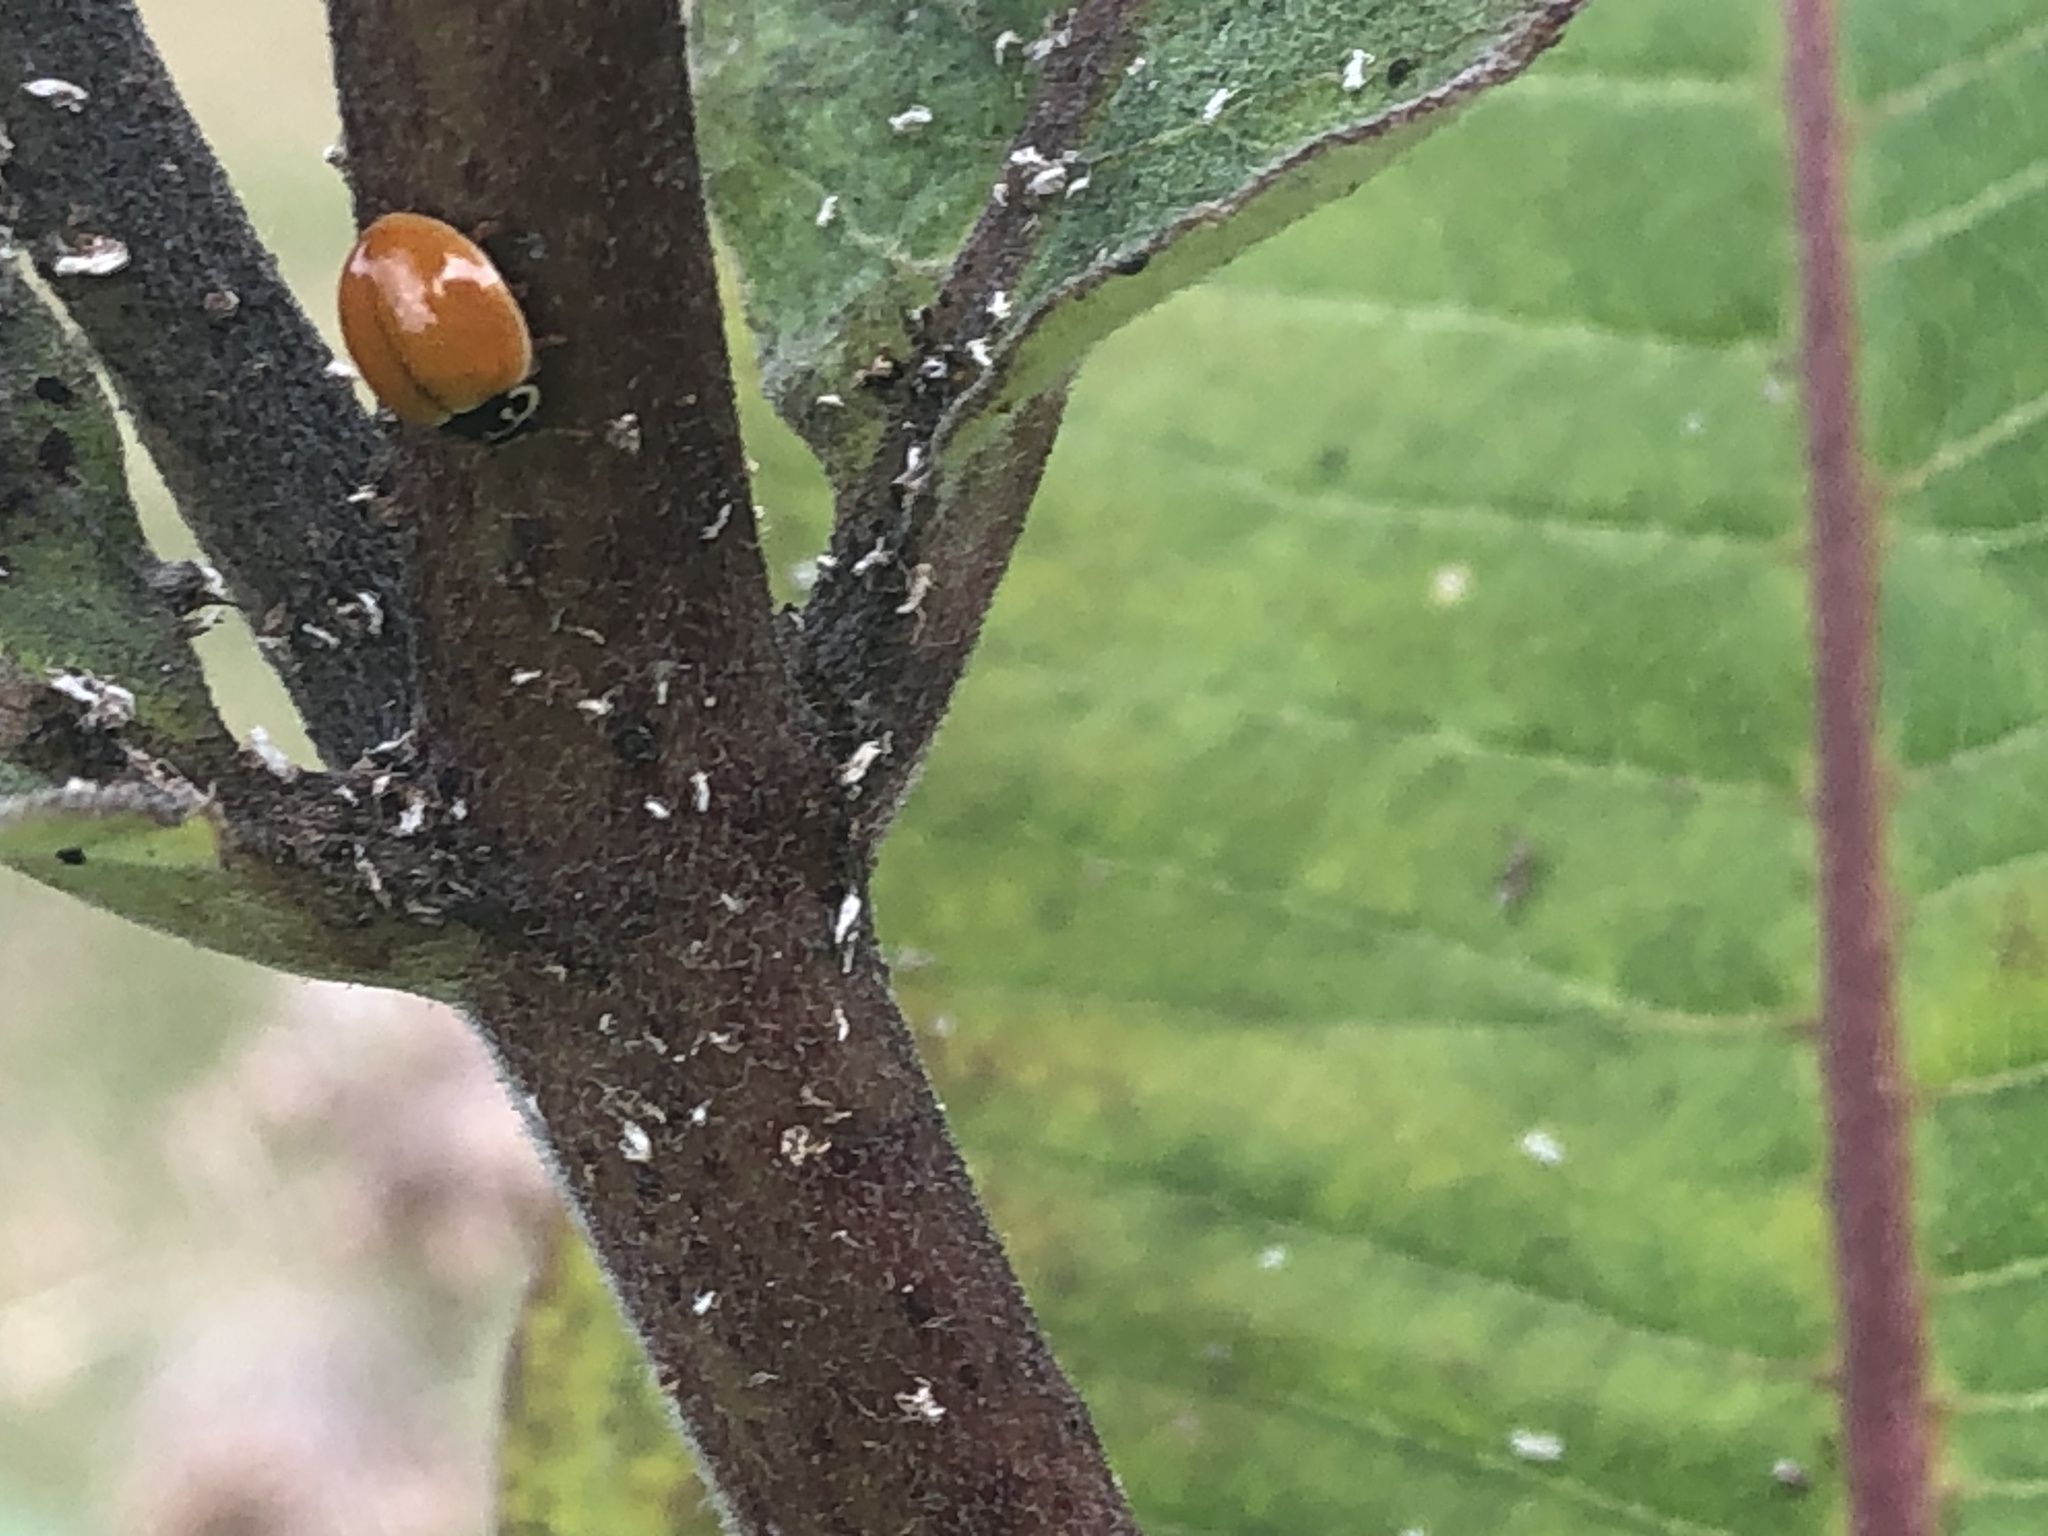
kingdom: Animalia
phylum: Arthropoda
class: Insecta
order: Coleoptera
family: Coccinellidae
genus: Cycloneda
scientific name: Cycloneda munda
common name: Polished lady beetle
